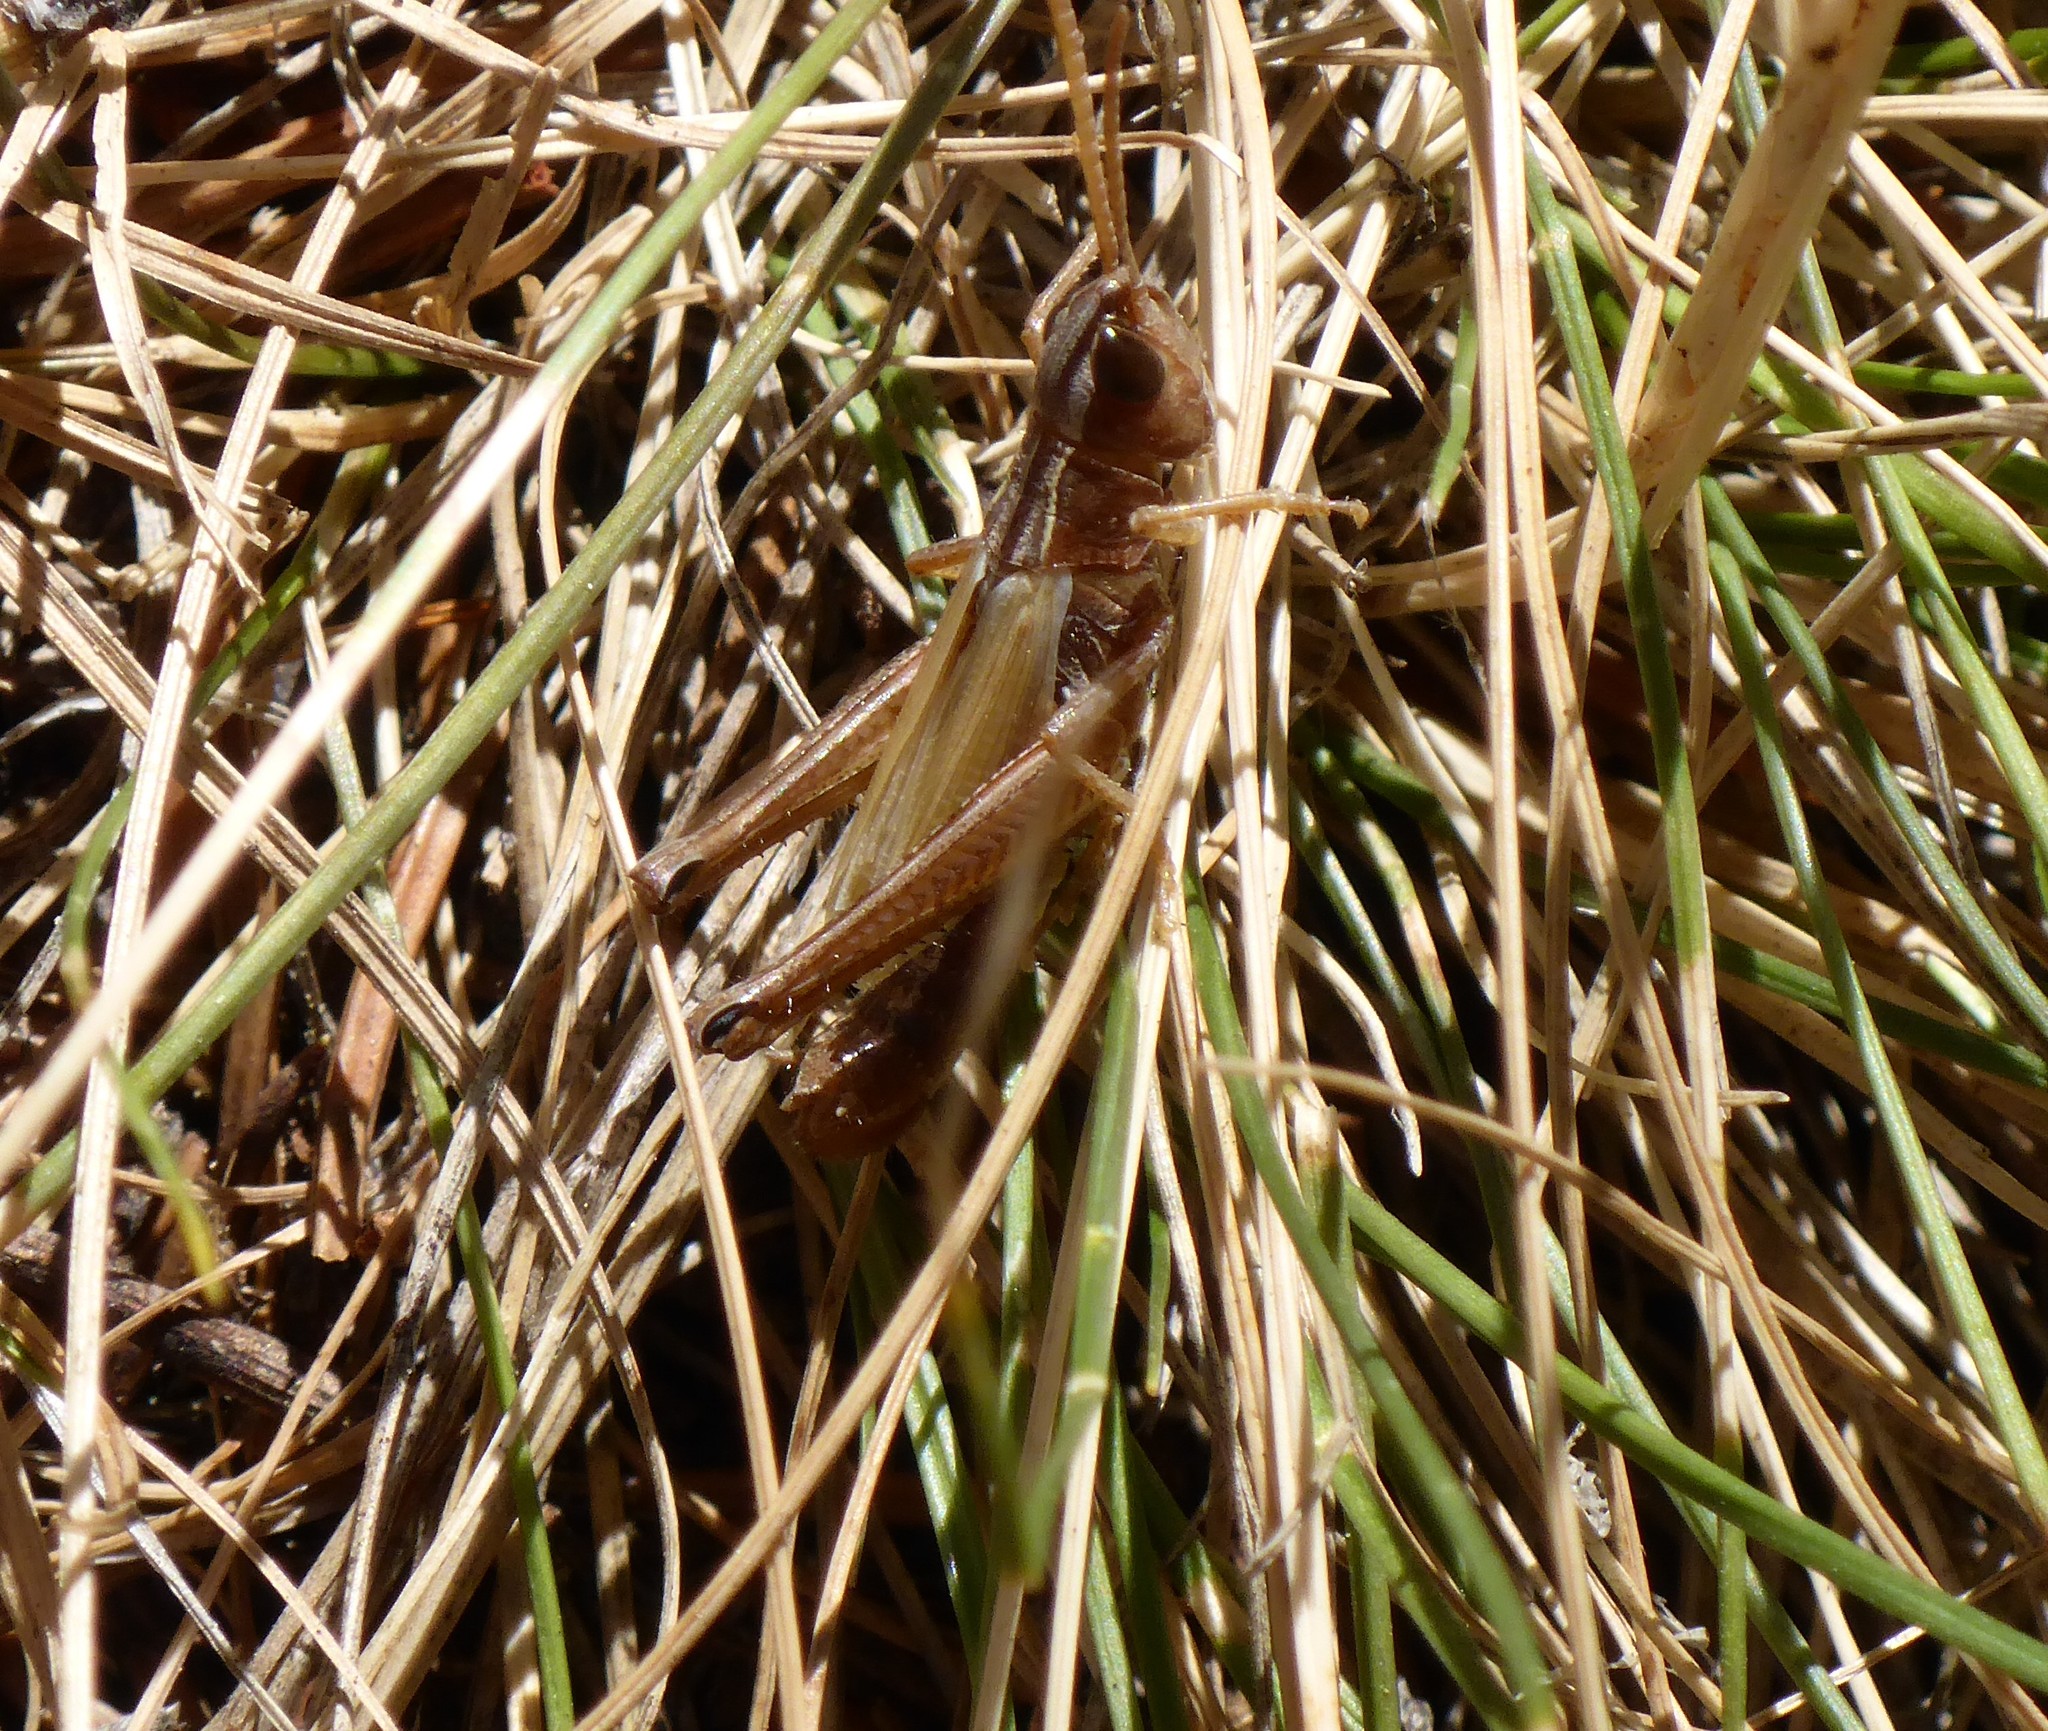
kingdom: Animalia
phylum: Arthropoda
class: Insecta
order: Orthoptera
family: Acrididae
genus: Pseudochorthippus
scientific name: Pseudochorthippus curtipennis
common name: Marsh meadow grasshopper
